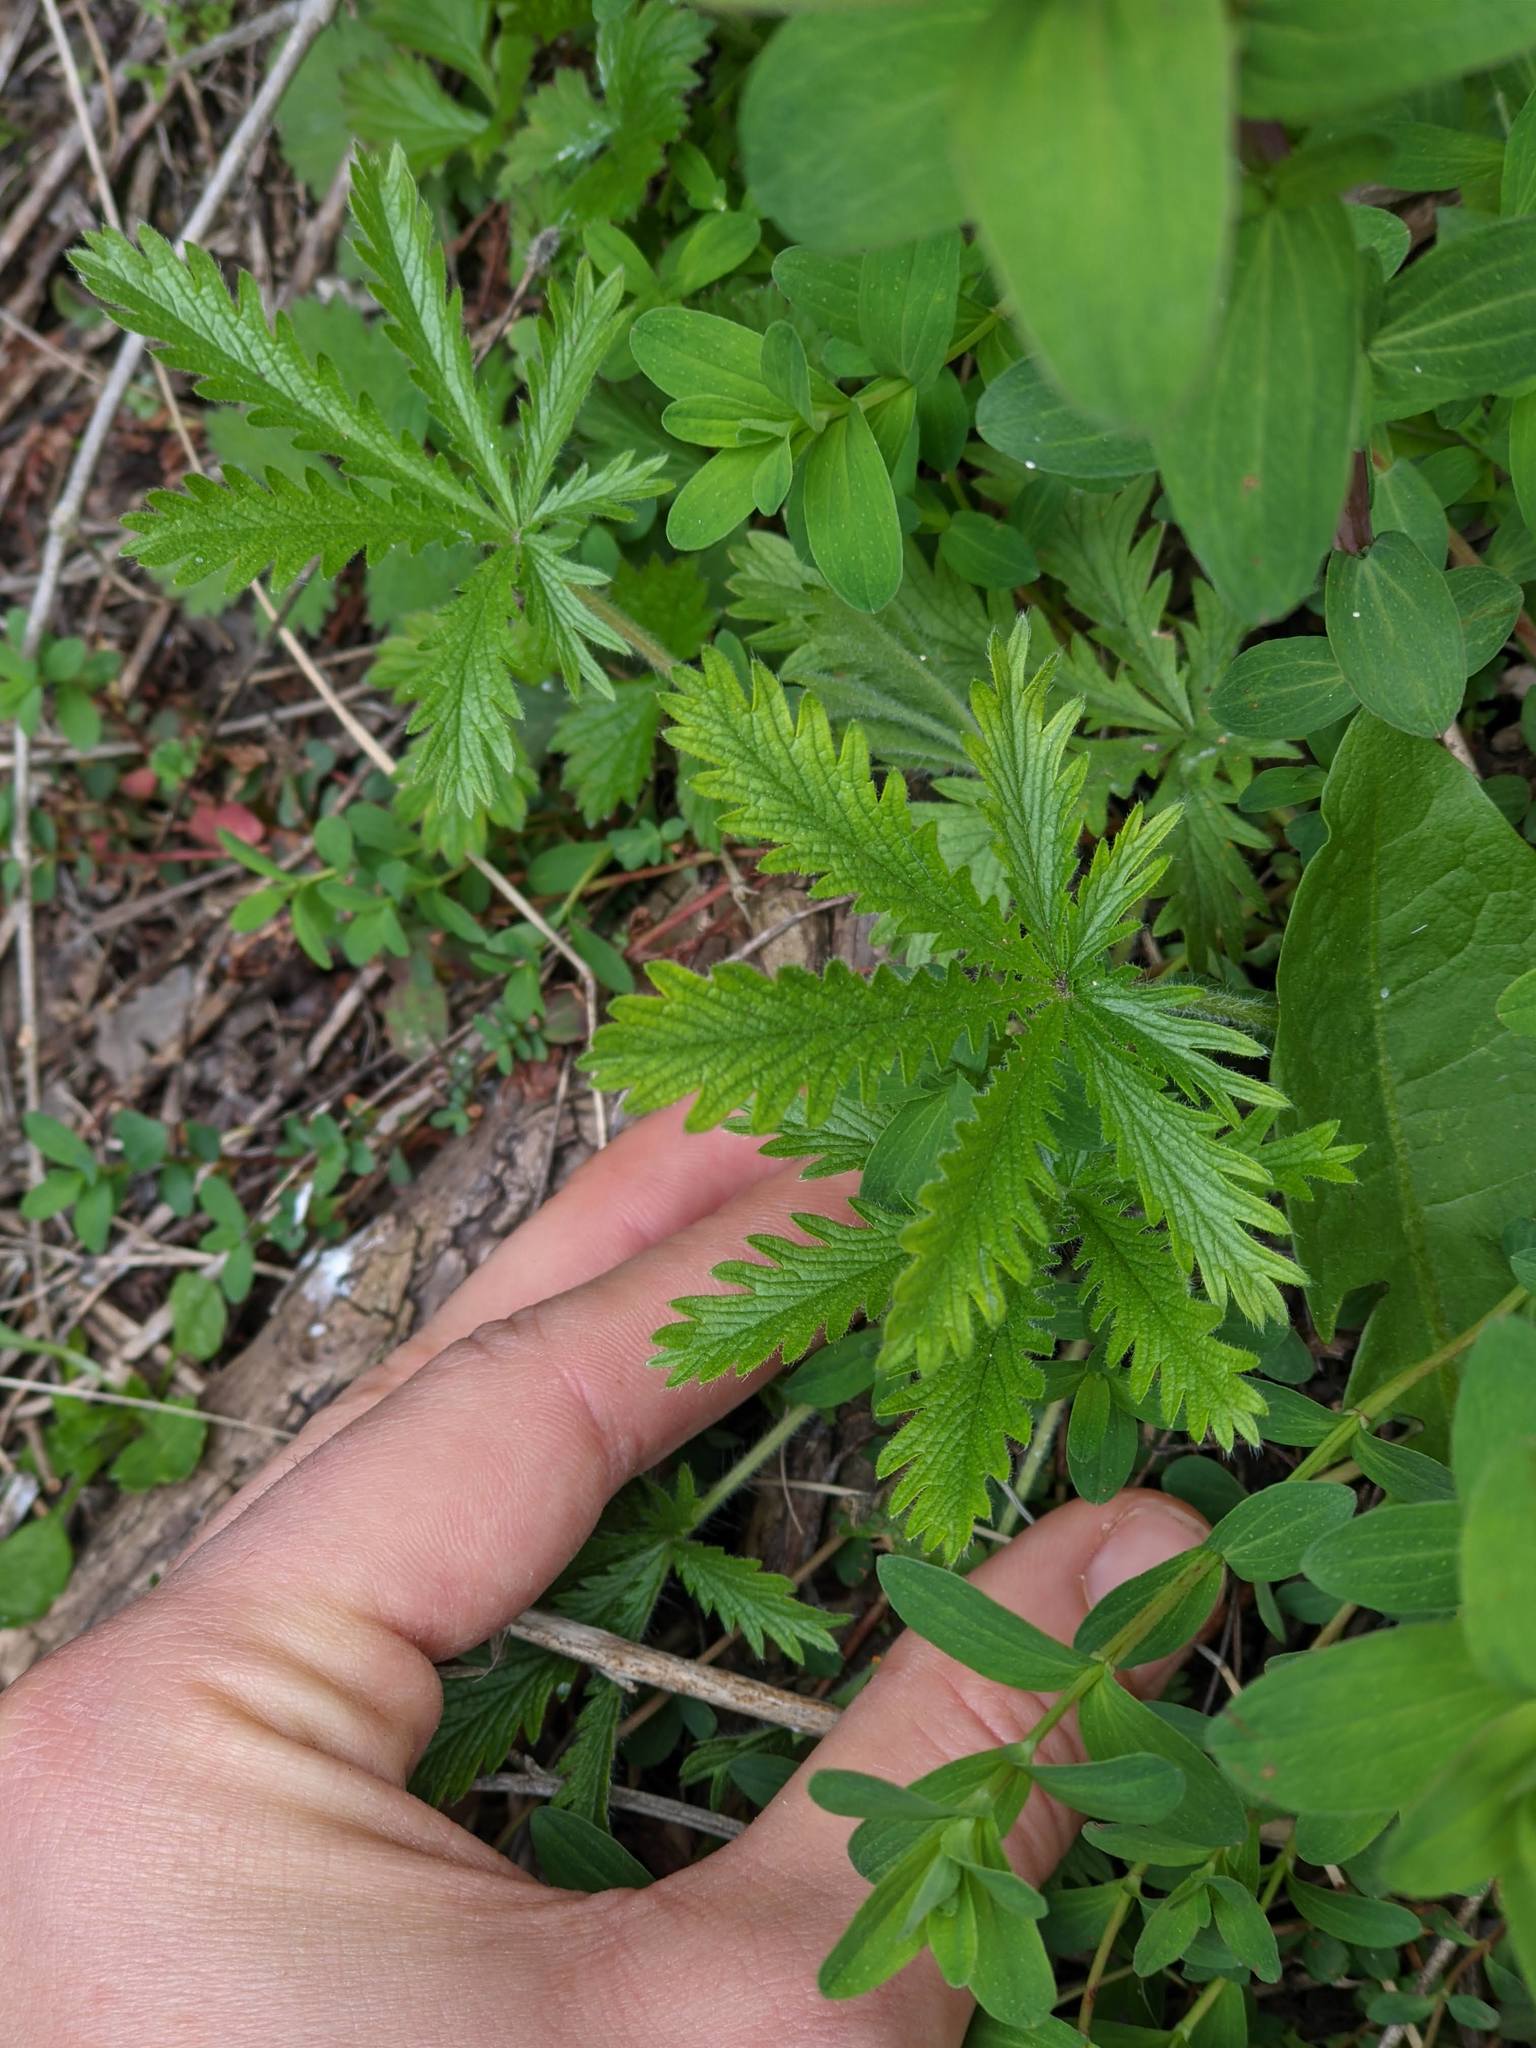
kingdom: Plantae
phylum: Tracheophyta
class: Magnoliopsida
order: Rosales
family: Rosaceae
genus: Potentilla
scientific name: Potentilla recta
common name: Sulphur cinquefoil
